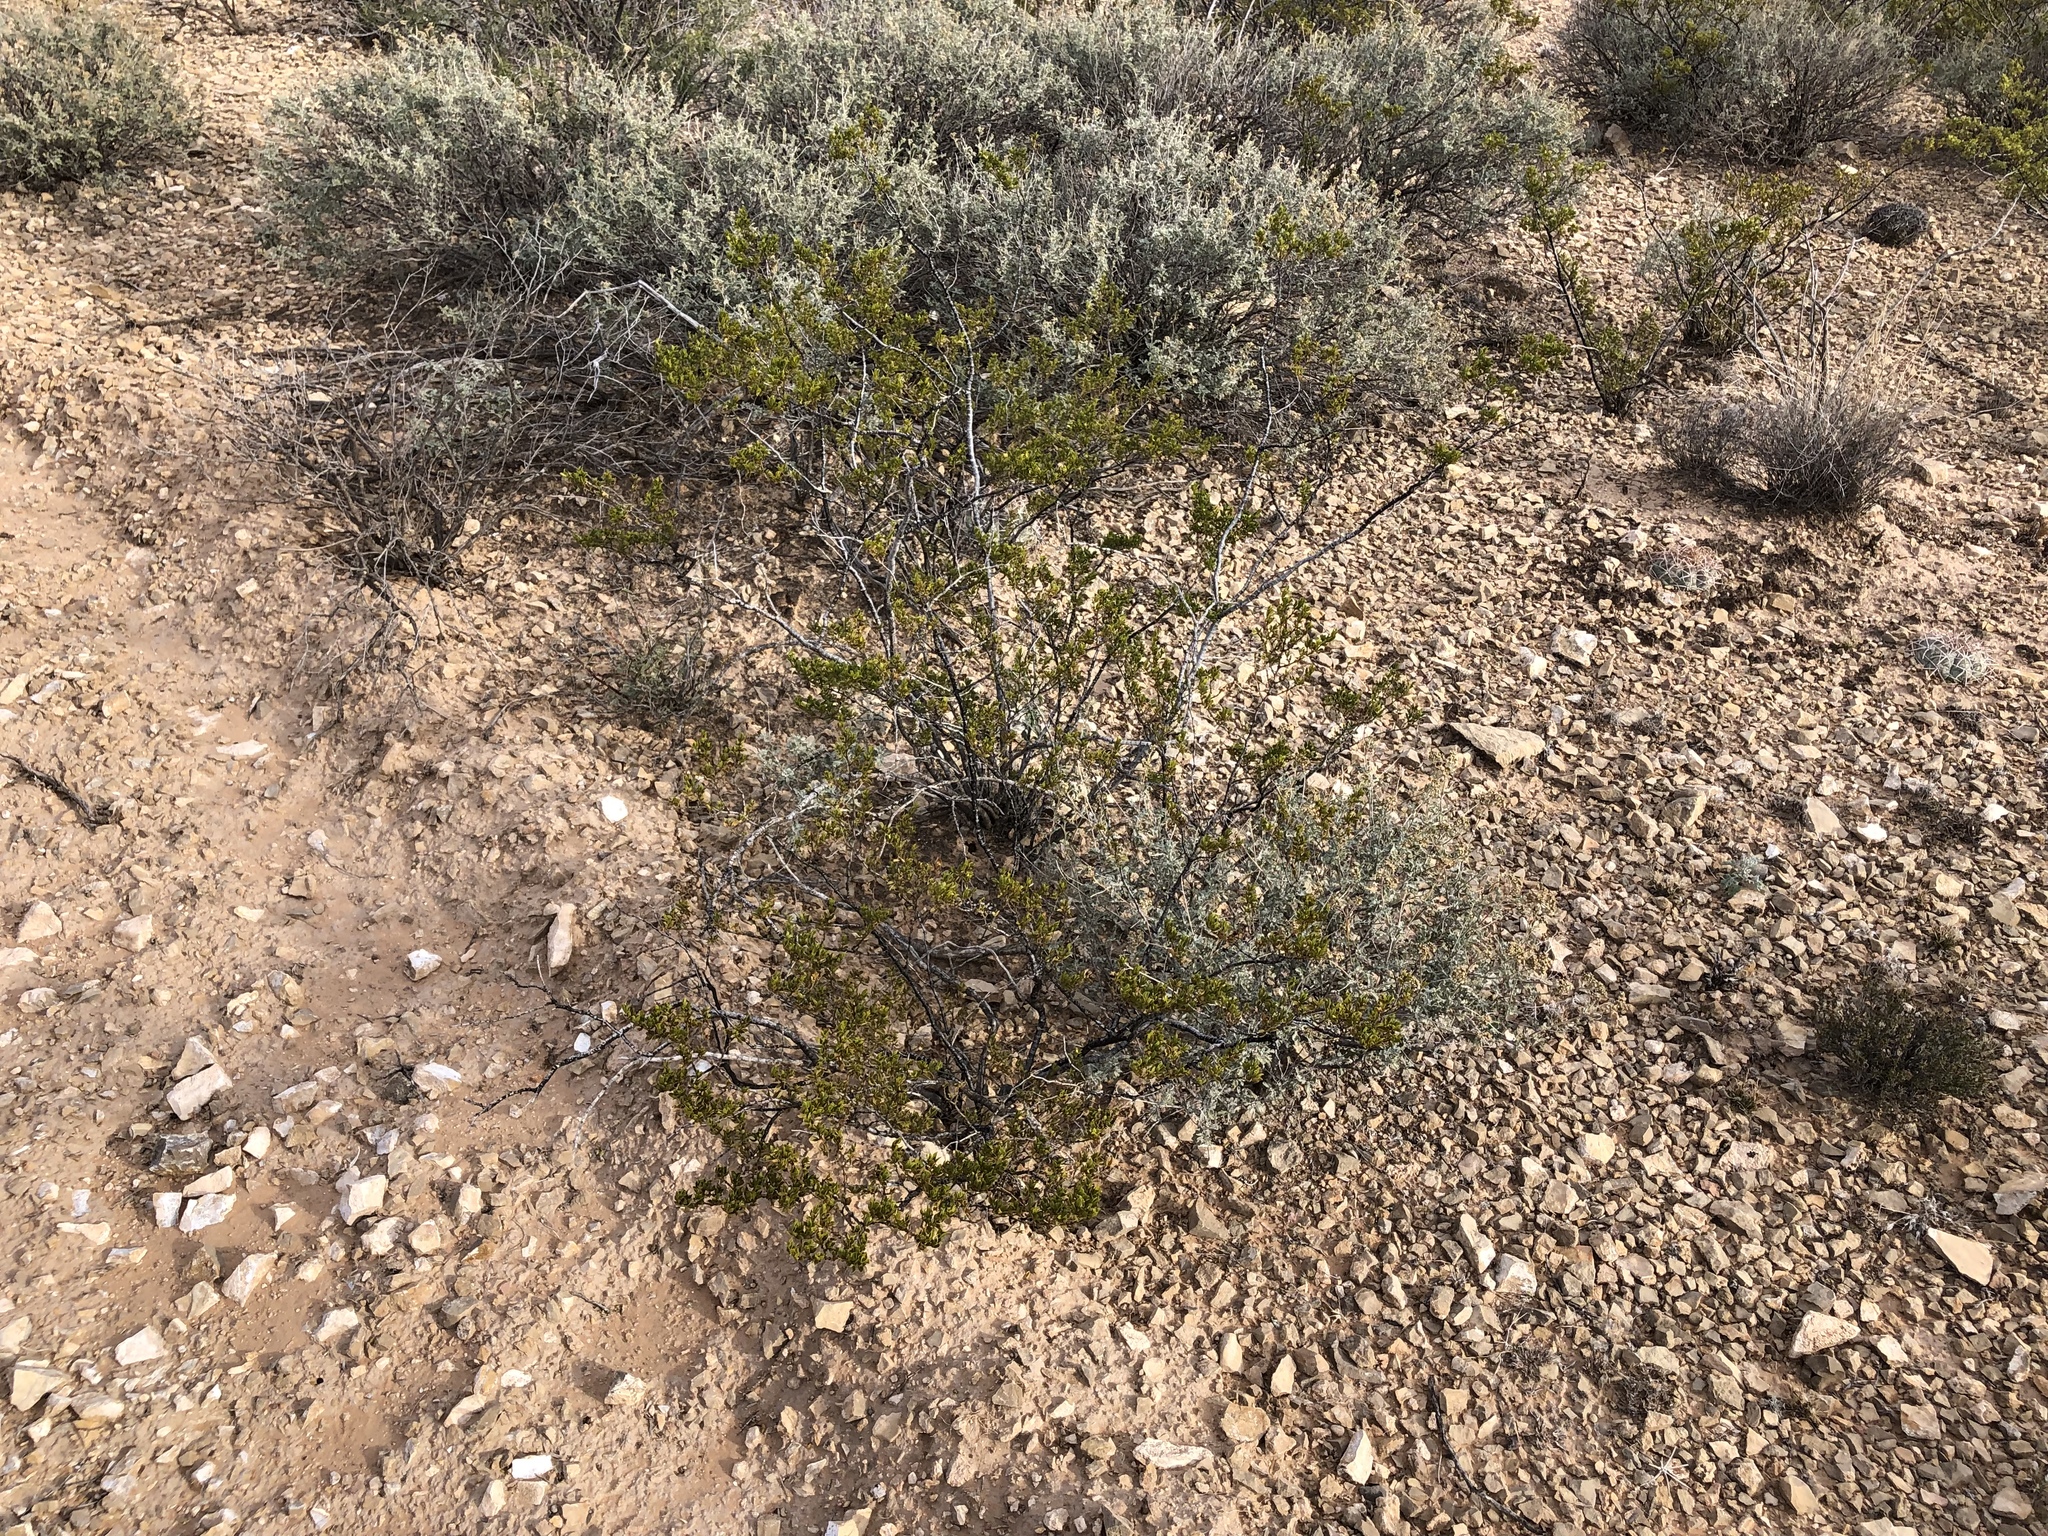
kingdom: Plantae
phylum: Tracheophyta
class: Magnoliopsida
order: Zygophyllales
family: Zygophyllaceae
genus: Larrea
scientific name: Larrea tridentata
